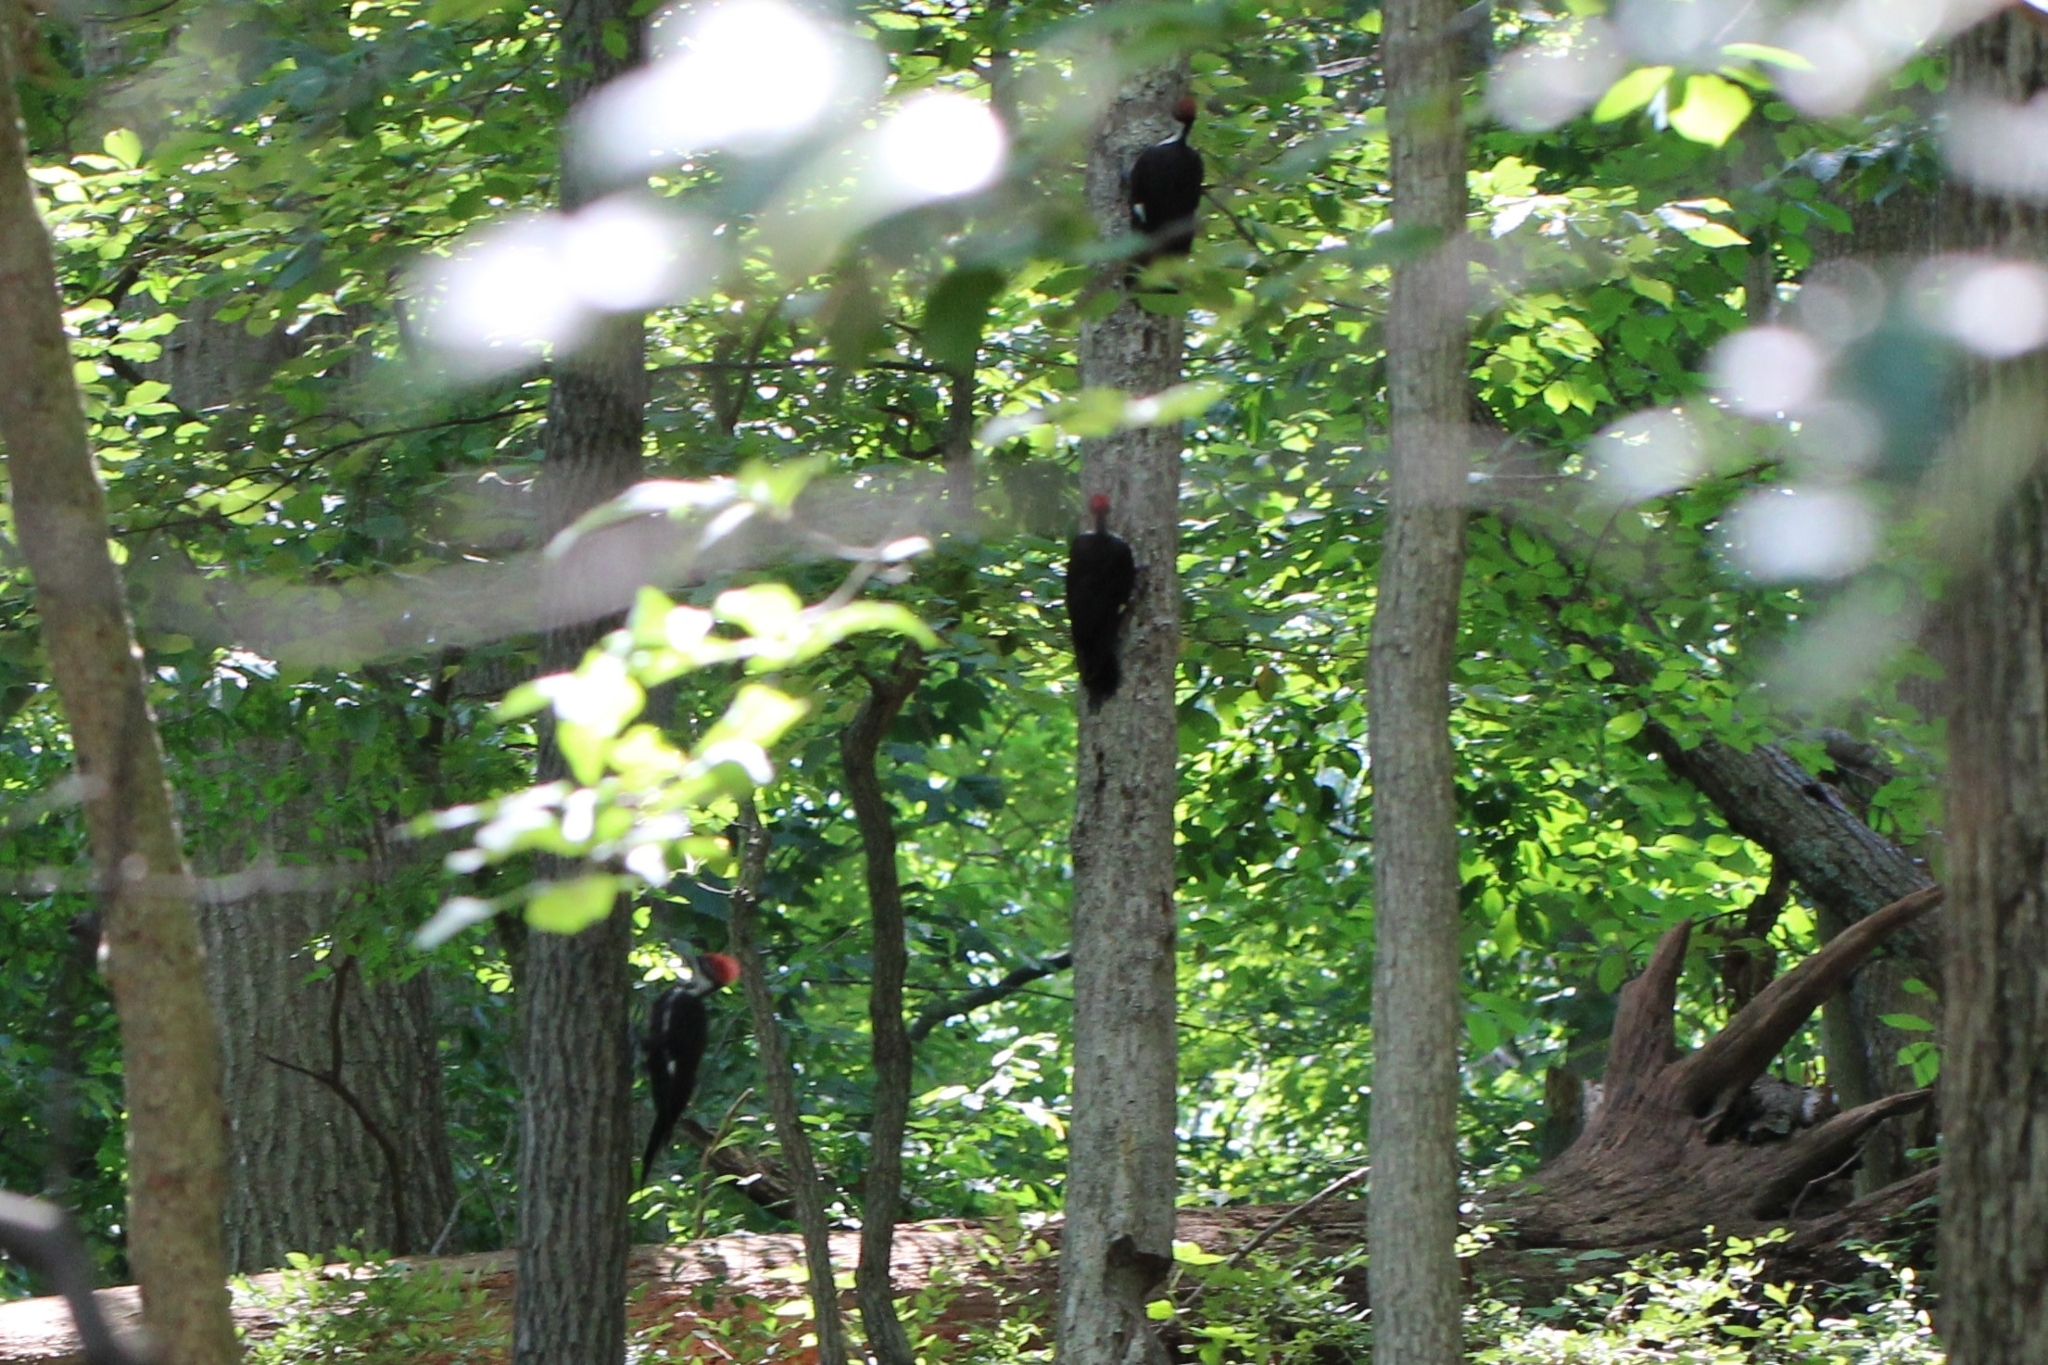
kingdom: Animalia
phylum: Chordata
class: Aves
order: Piciformes
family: Picidae
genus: Dryocopus
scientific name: Dryocopus pileatus
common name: Pileated woodpecker
